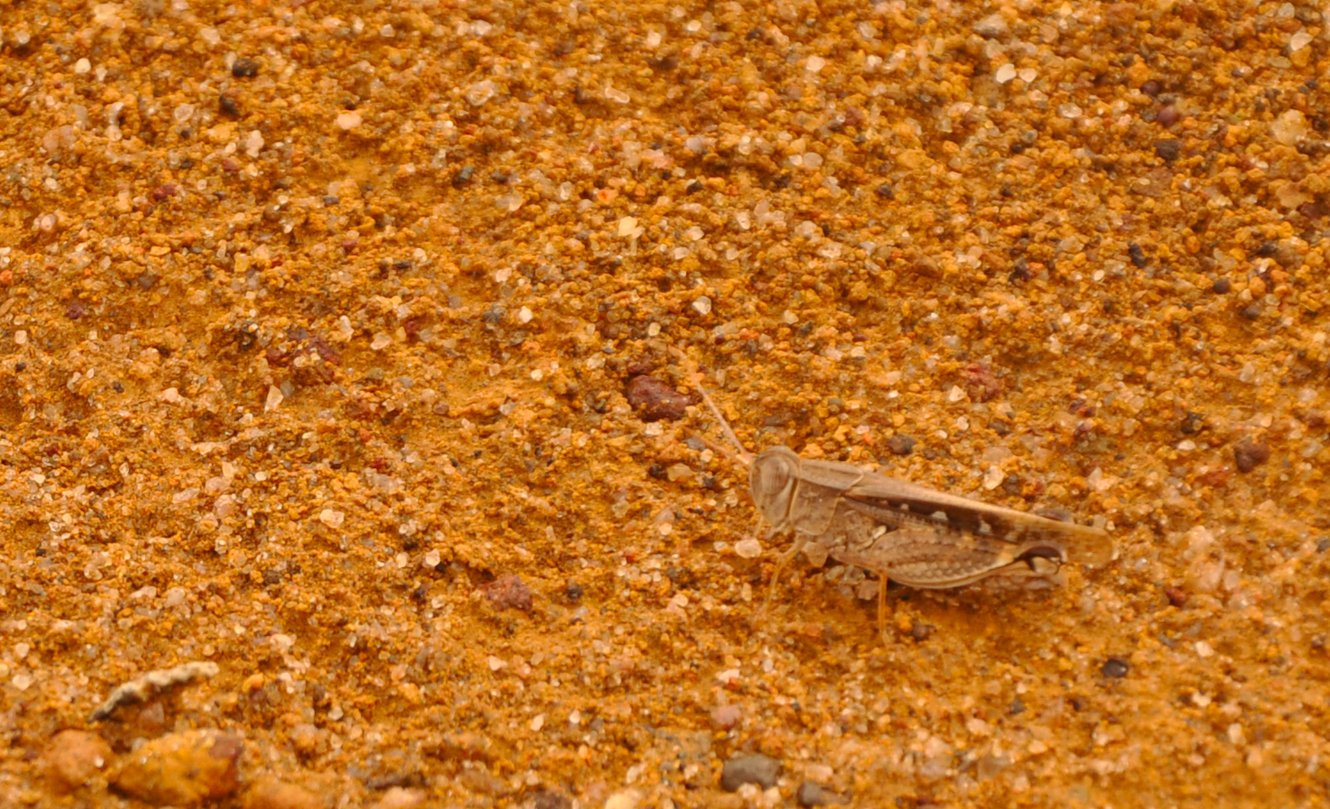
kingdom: Animalia
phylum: Arthropoda
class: Insecta
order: Orthoptera
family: Acrididae
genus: Acorypha
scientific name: Acorypha decisa
